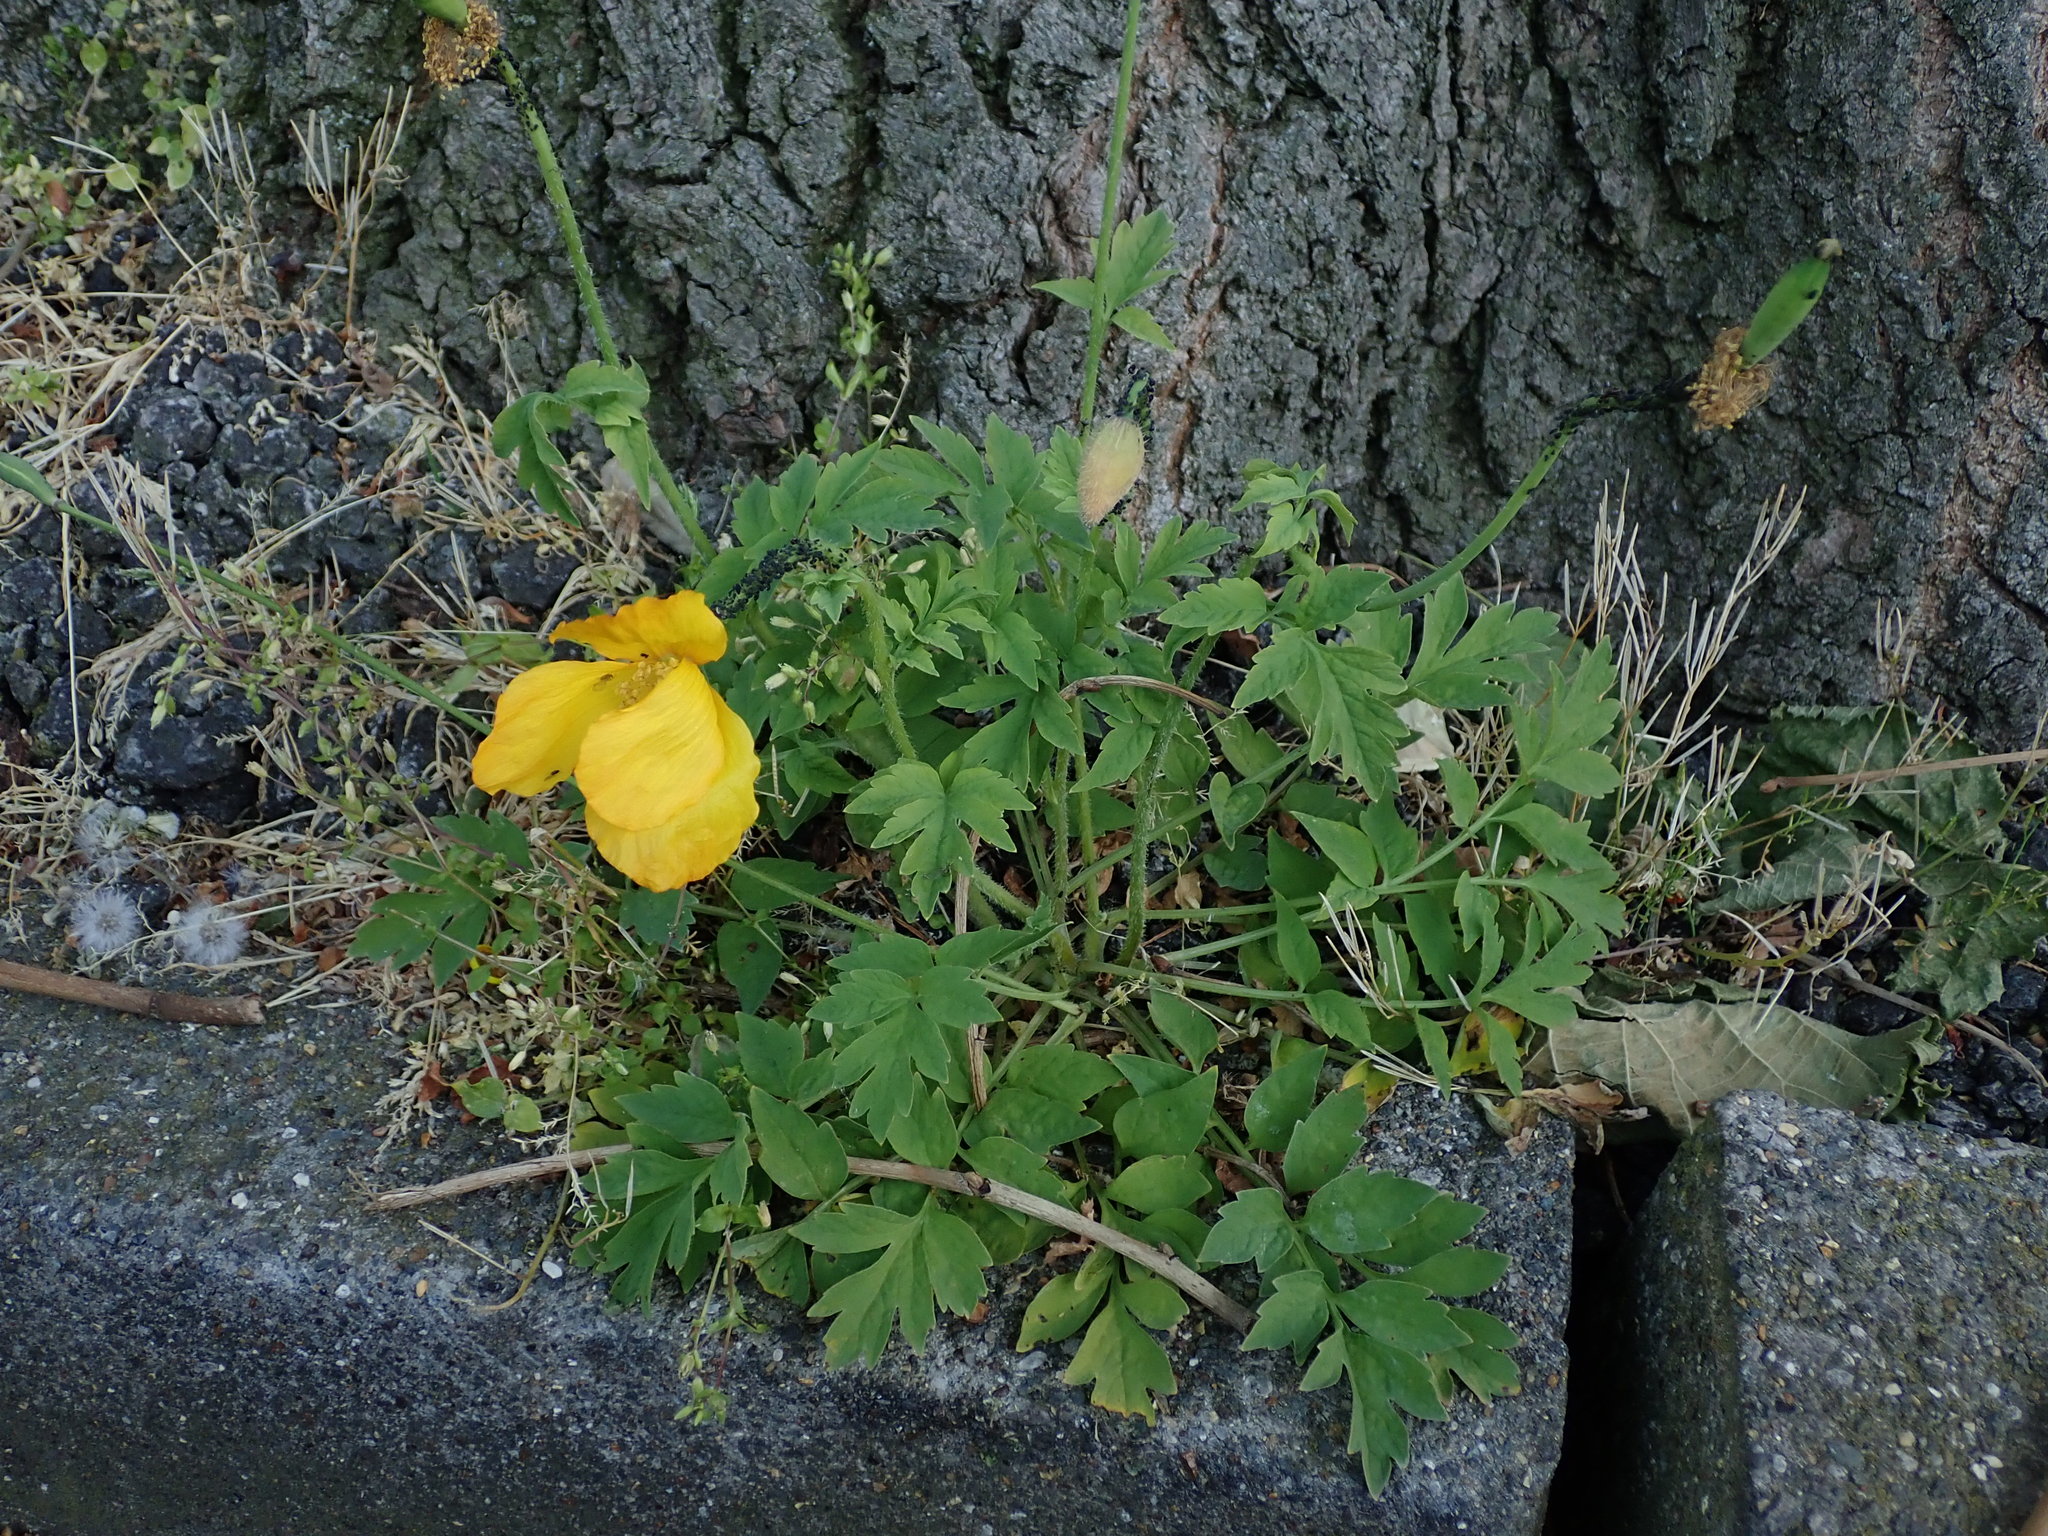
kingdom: Plantae
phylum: Tracheophyta
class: Magnoliopsida
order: Ranunculales
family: Papaveraceae
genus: Papaver
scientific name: Papaver cambricum
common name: Poppy
